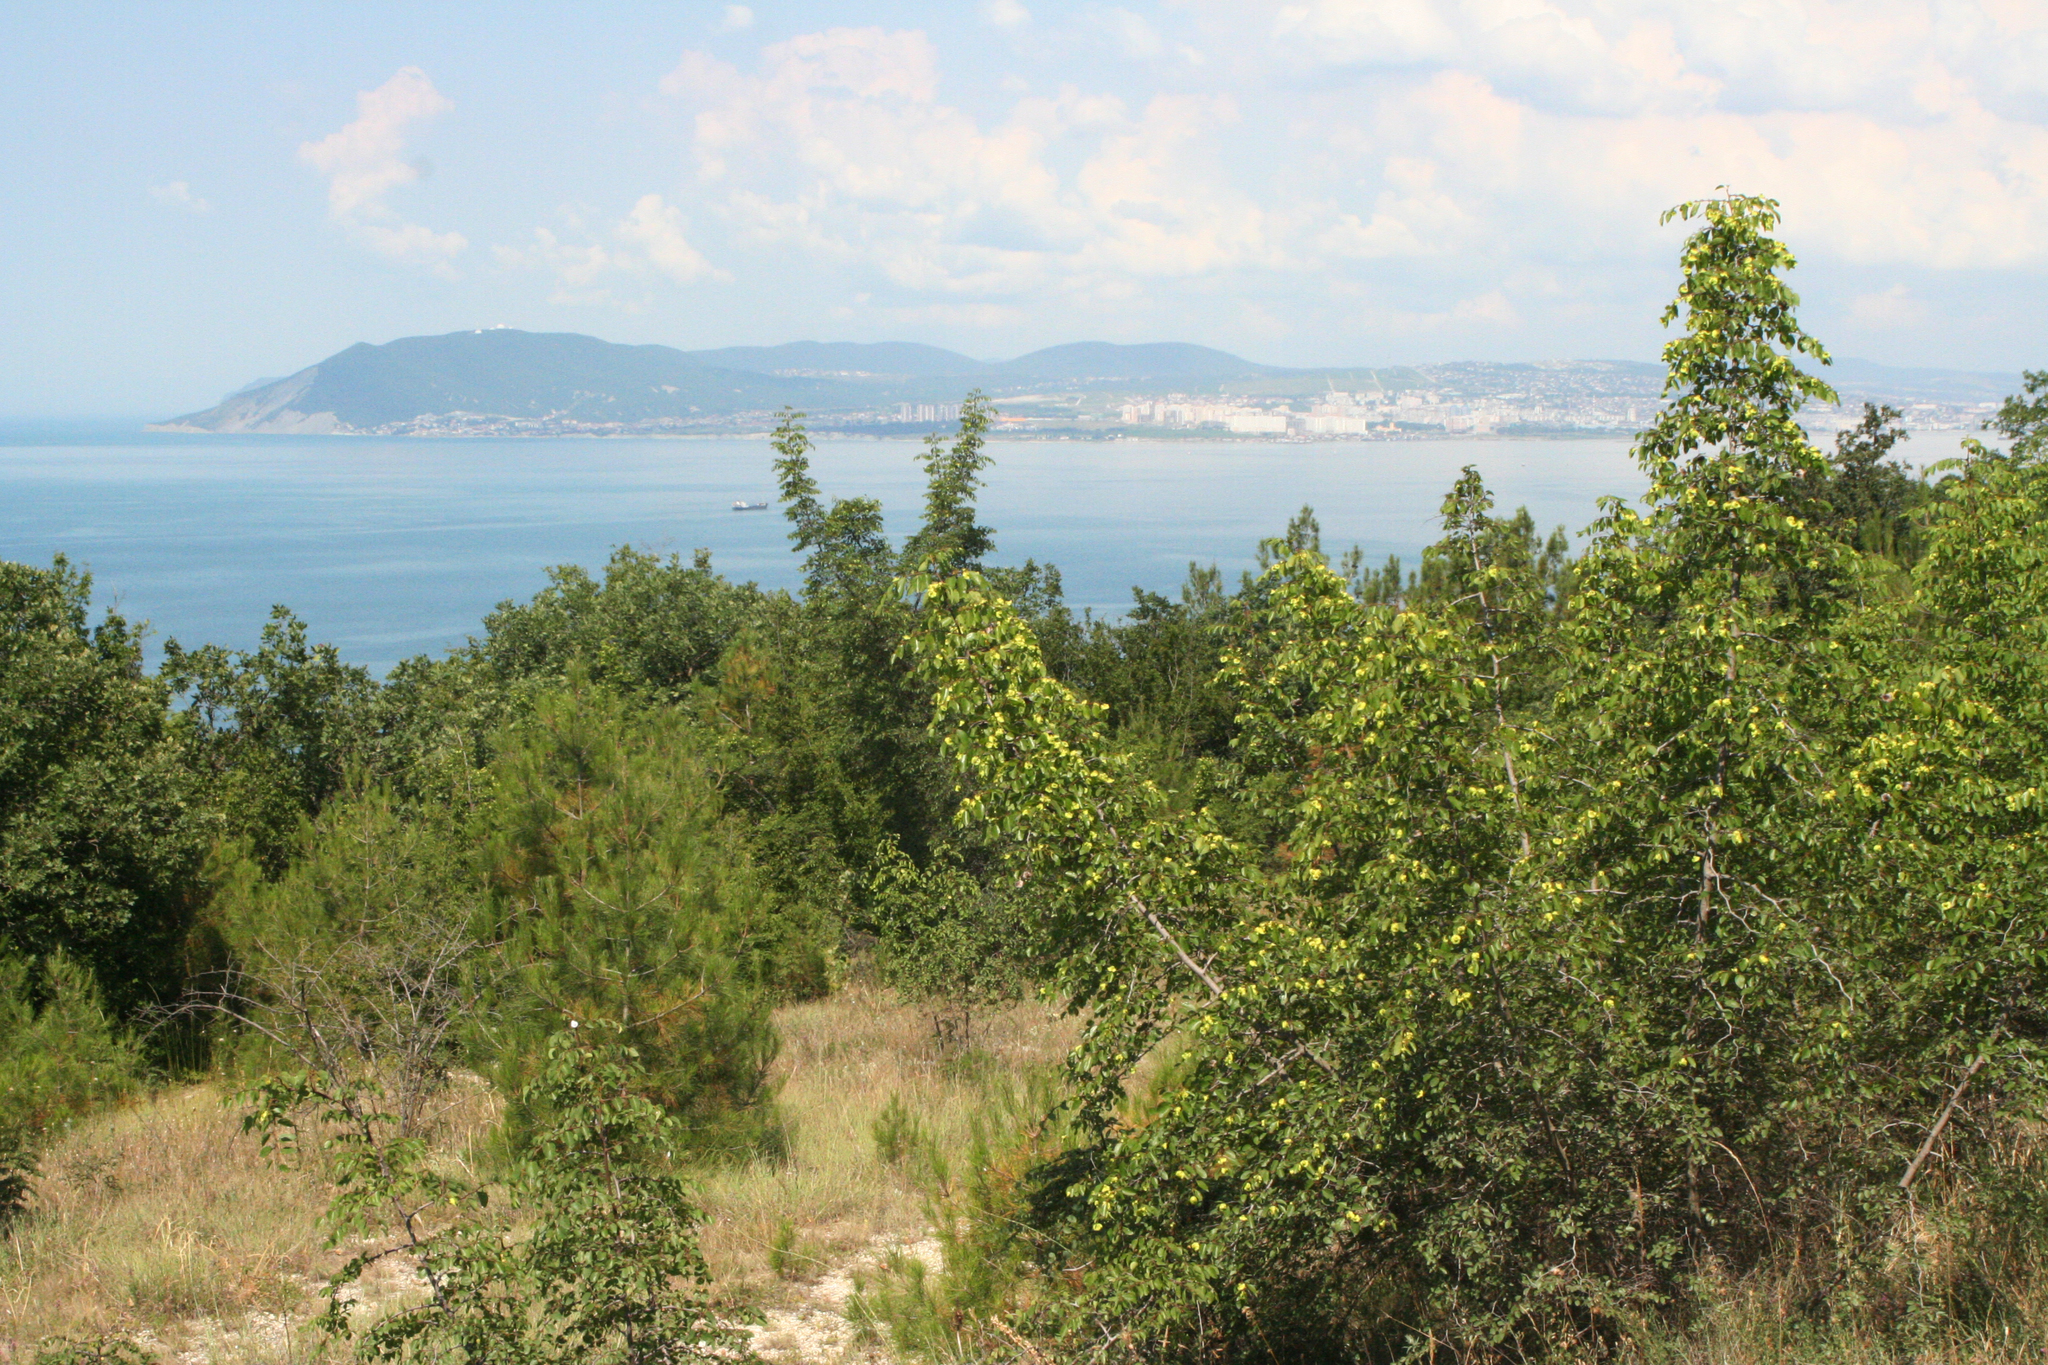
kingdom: Plantae
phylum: Tracheophyta
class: Magnoliopsida
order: Rosales
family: Rhamnaceae
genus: Paliurus
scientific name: Paliurus spina-christi
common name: Jeruselem thorn
